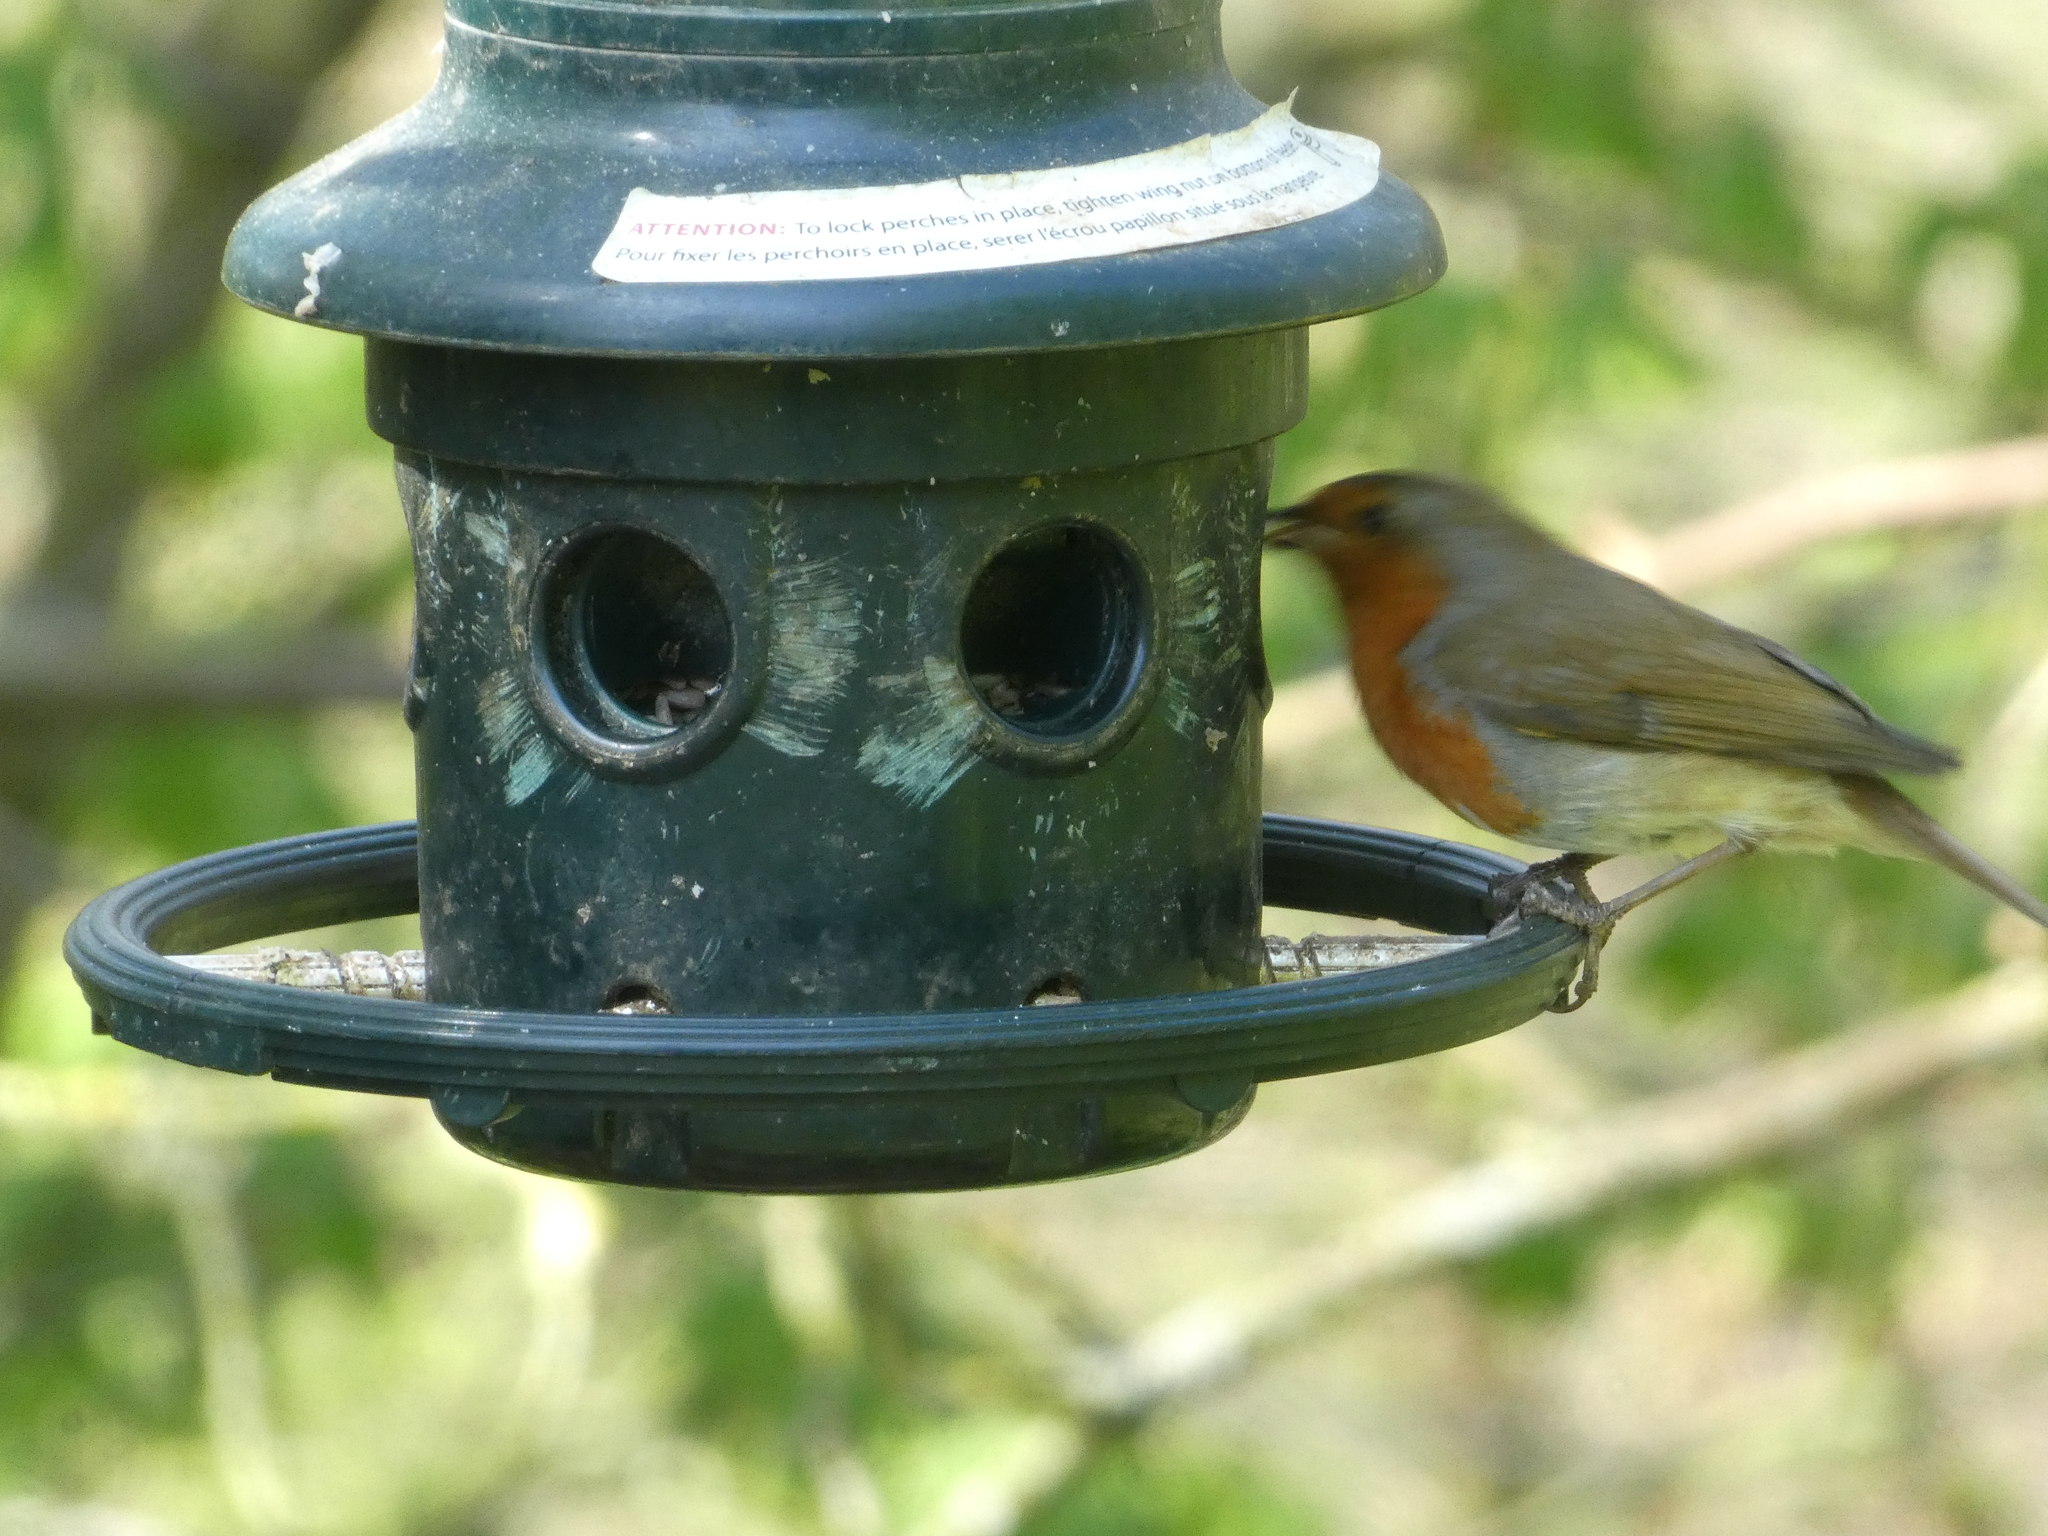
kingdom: Animalia
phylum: Chordata
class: Aves
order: Passeriformes
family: Muscicapidae
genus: Erithacus
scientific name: Erithacus rubecula
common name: European robin
